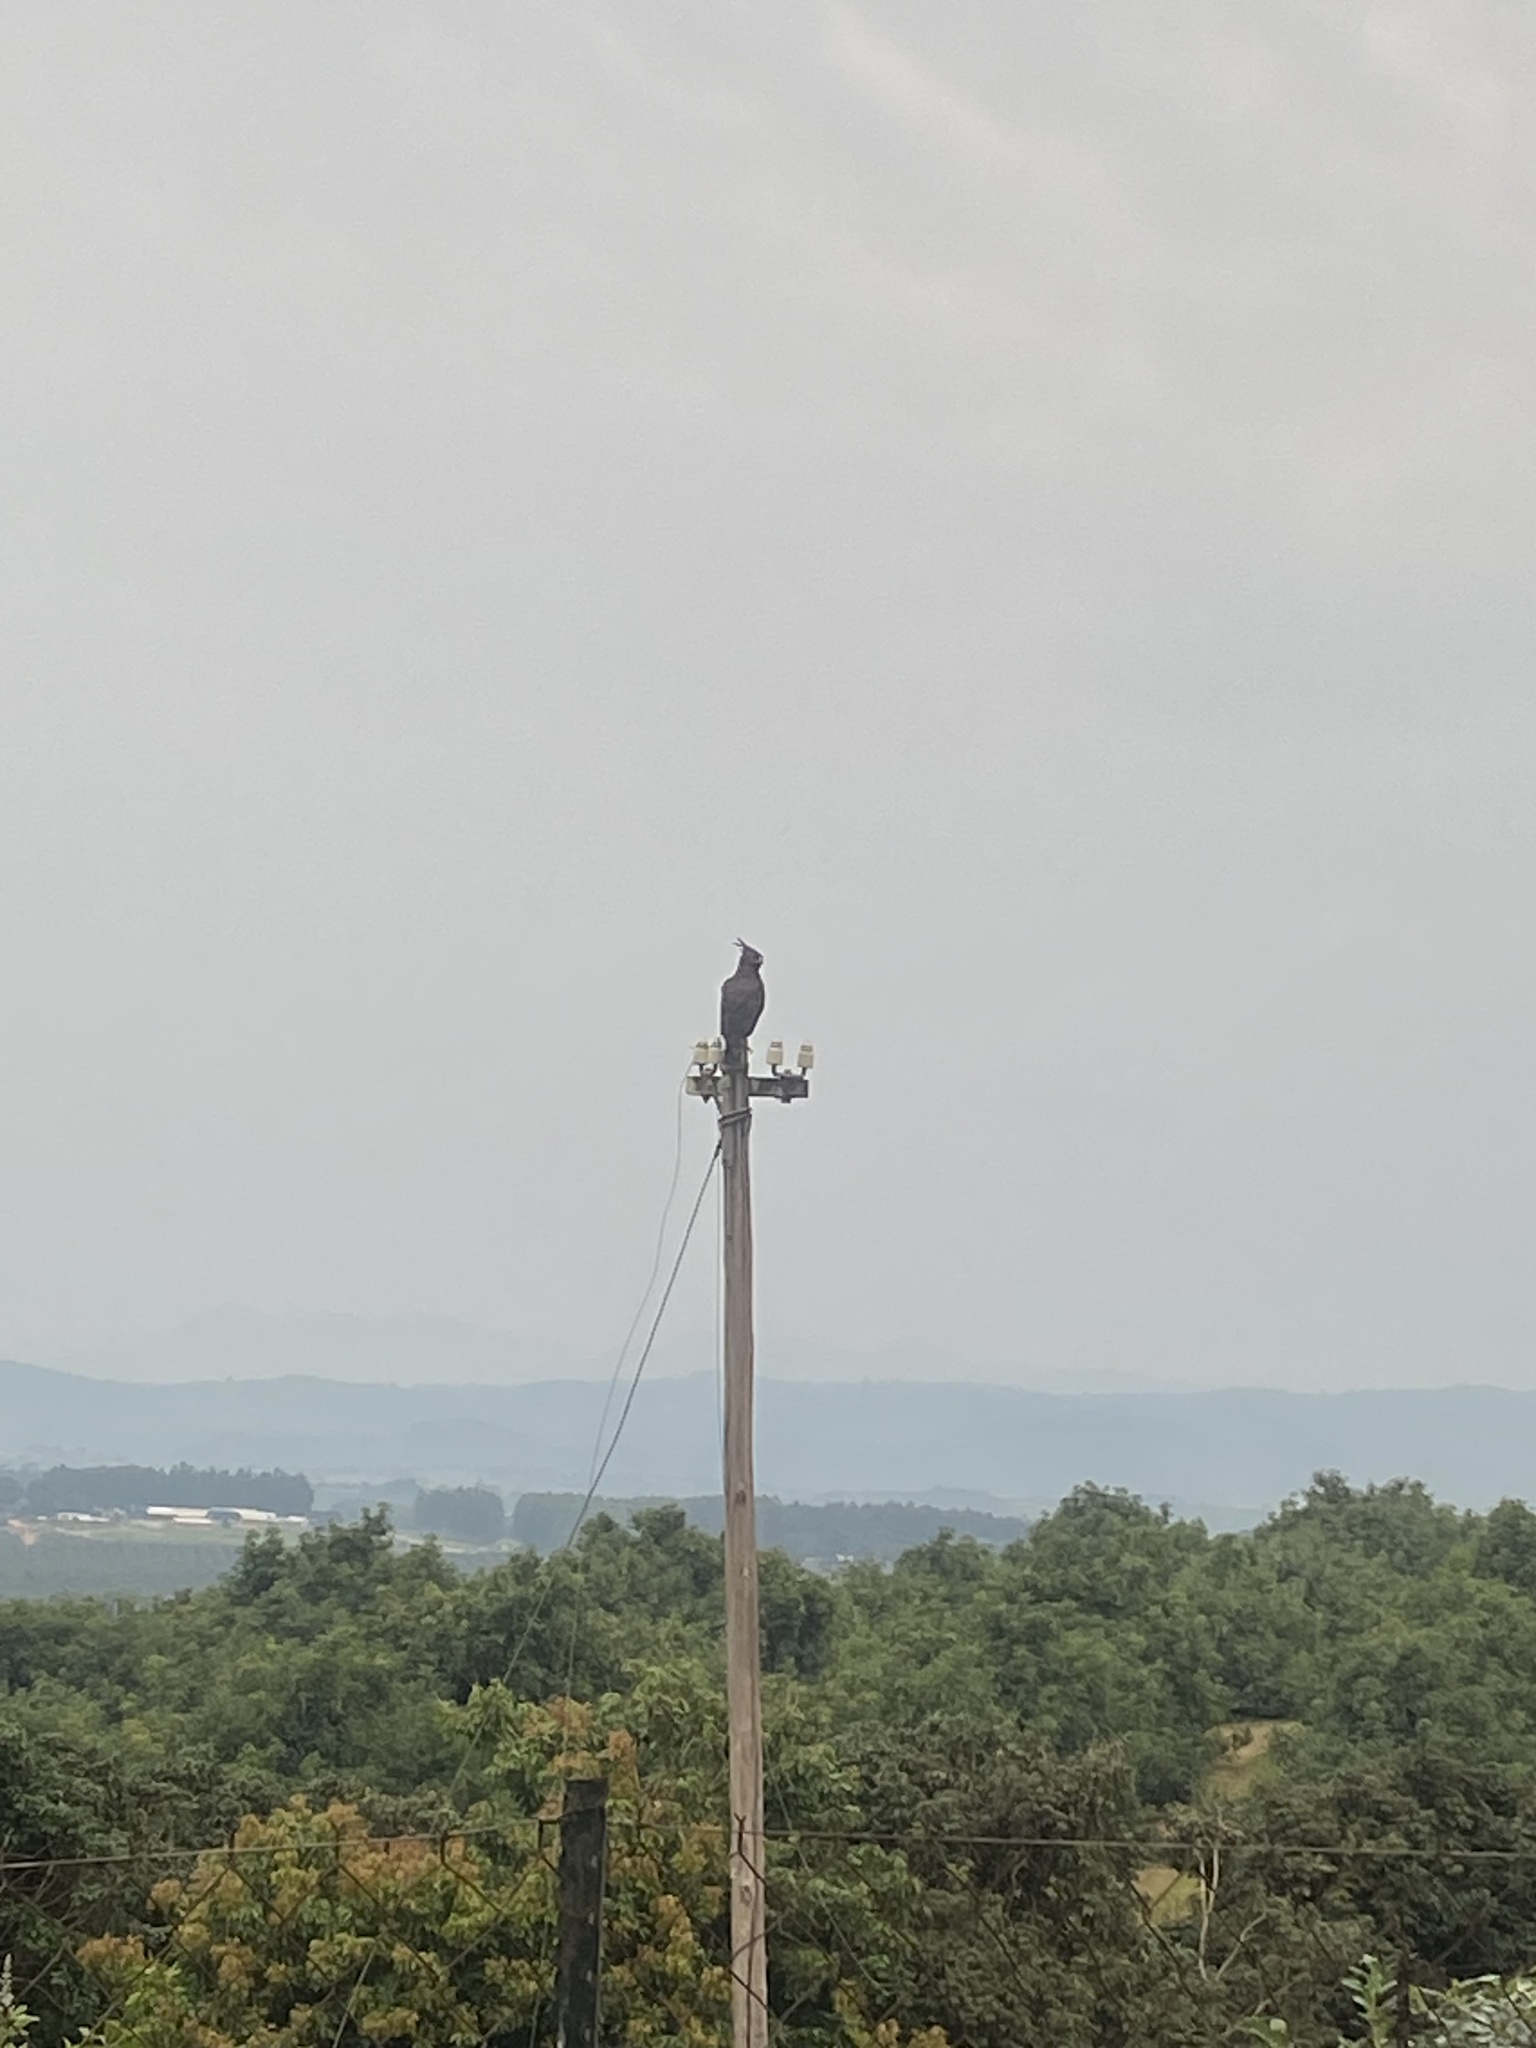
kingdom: Animalia
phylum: Chordata
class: Aves
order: Accipitriformes
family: Accipitridae
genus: Lophaetus
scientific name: Lophaetus occipitalis
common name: Long-crested eagle
